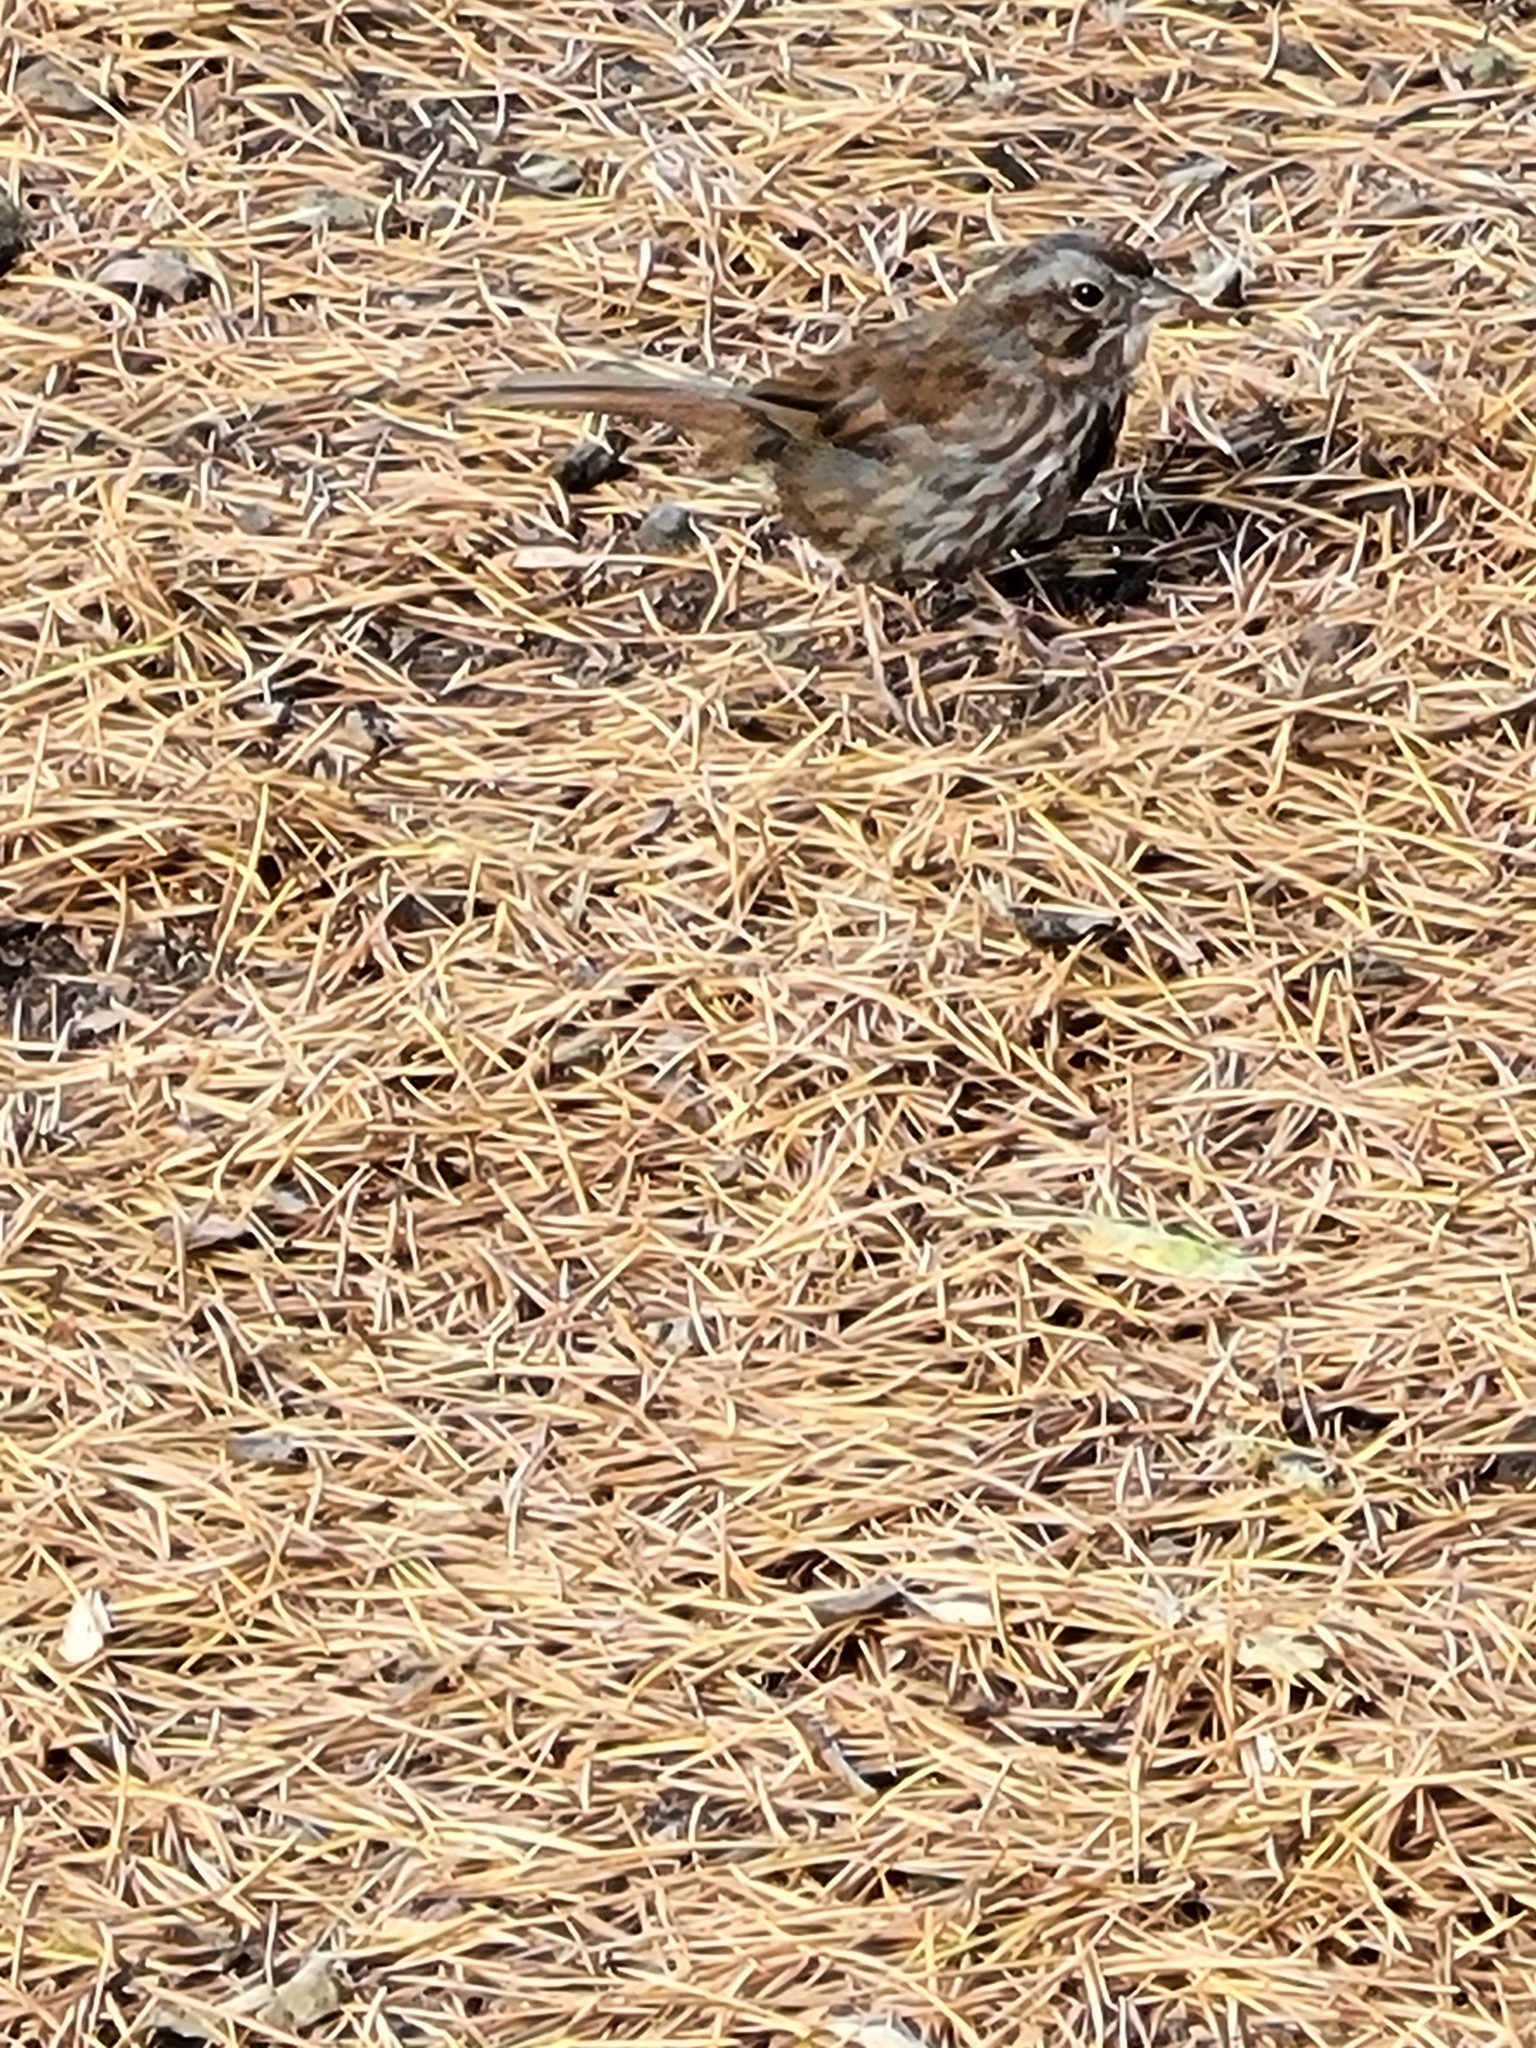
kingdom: Animalia
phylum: Chordata
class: Aves
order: Passeriformes
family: Passerellidae
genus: Melospiza
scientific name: Melospiza melodia
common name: Song sparrow
